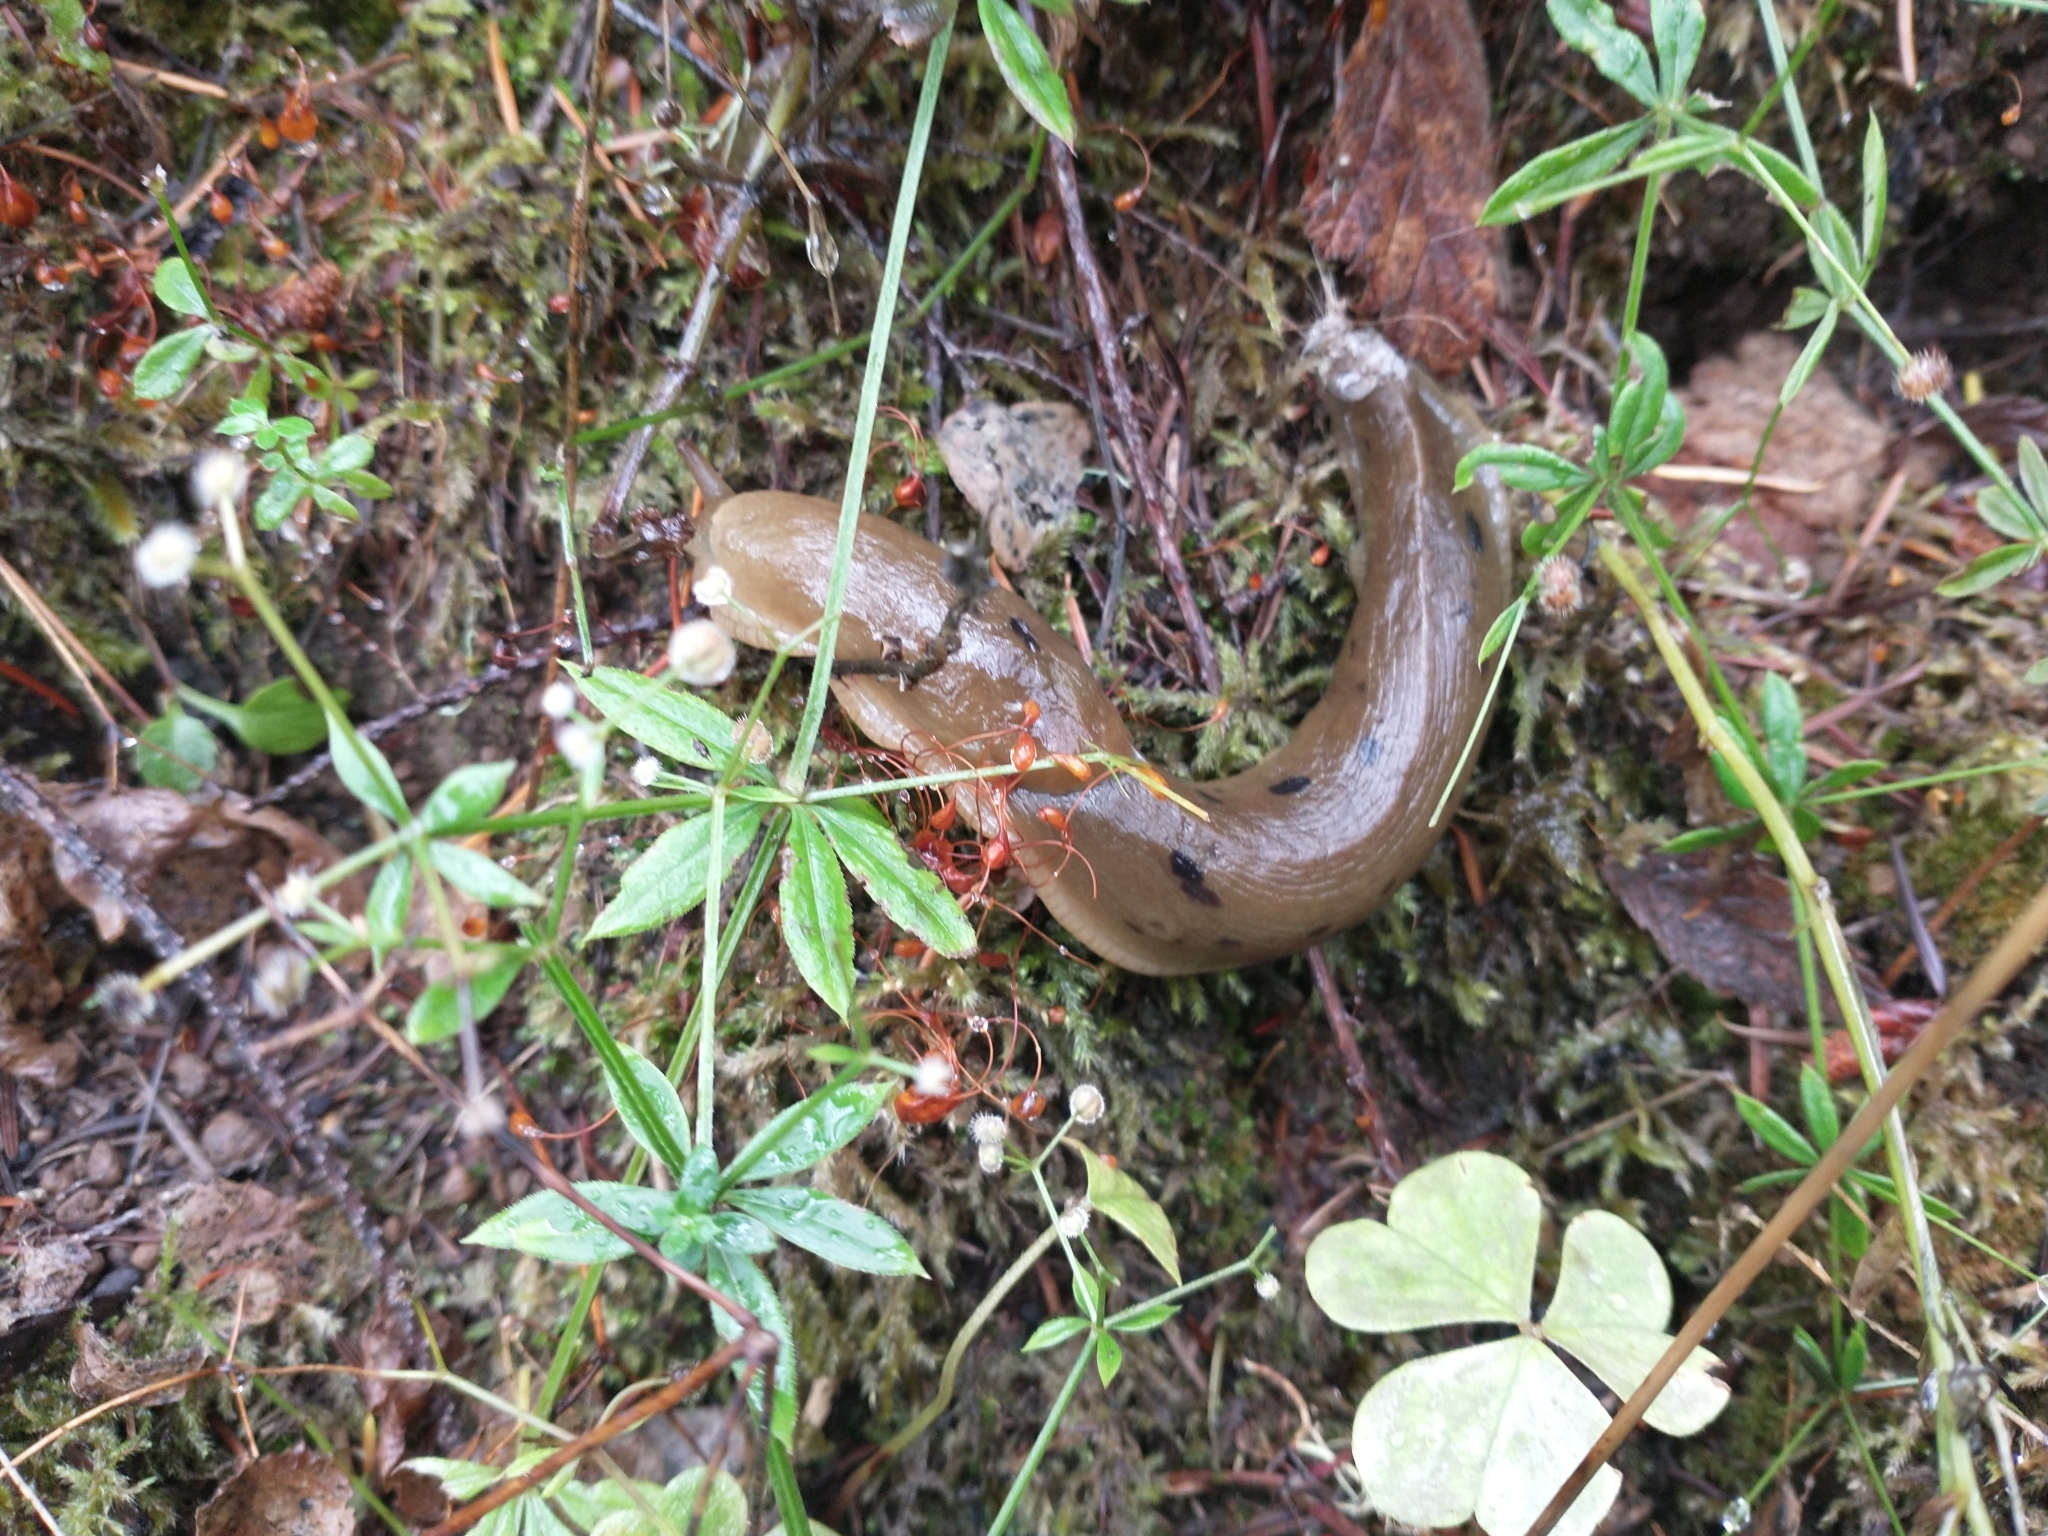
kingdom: Animalia
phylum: Mollusca
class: Gastropoda
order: Stylommatophora
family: Ariolimacidae
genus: Ariolimax
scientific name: Ariolimax columbianus
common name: Pacific banana slug
